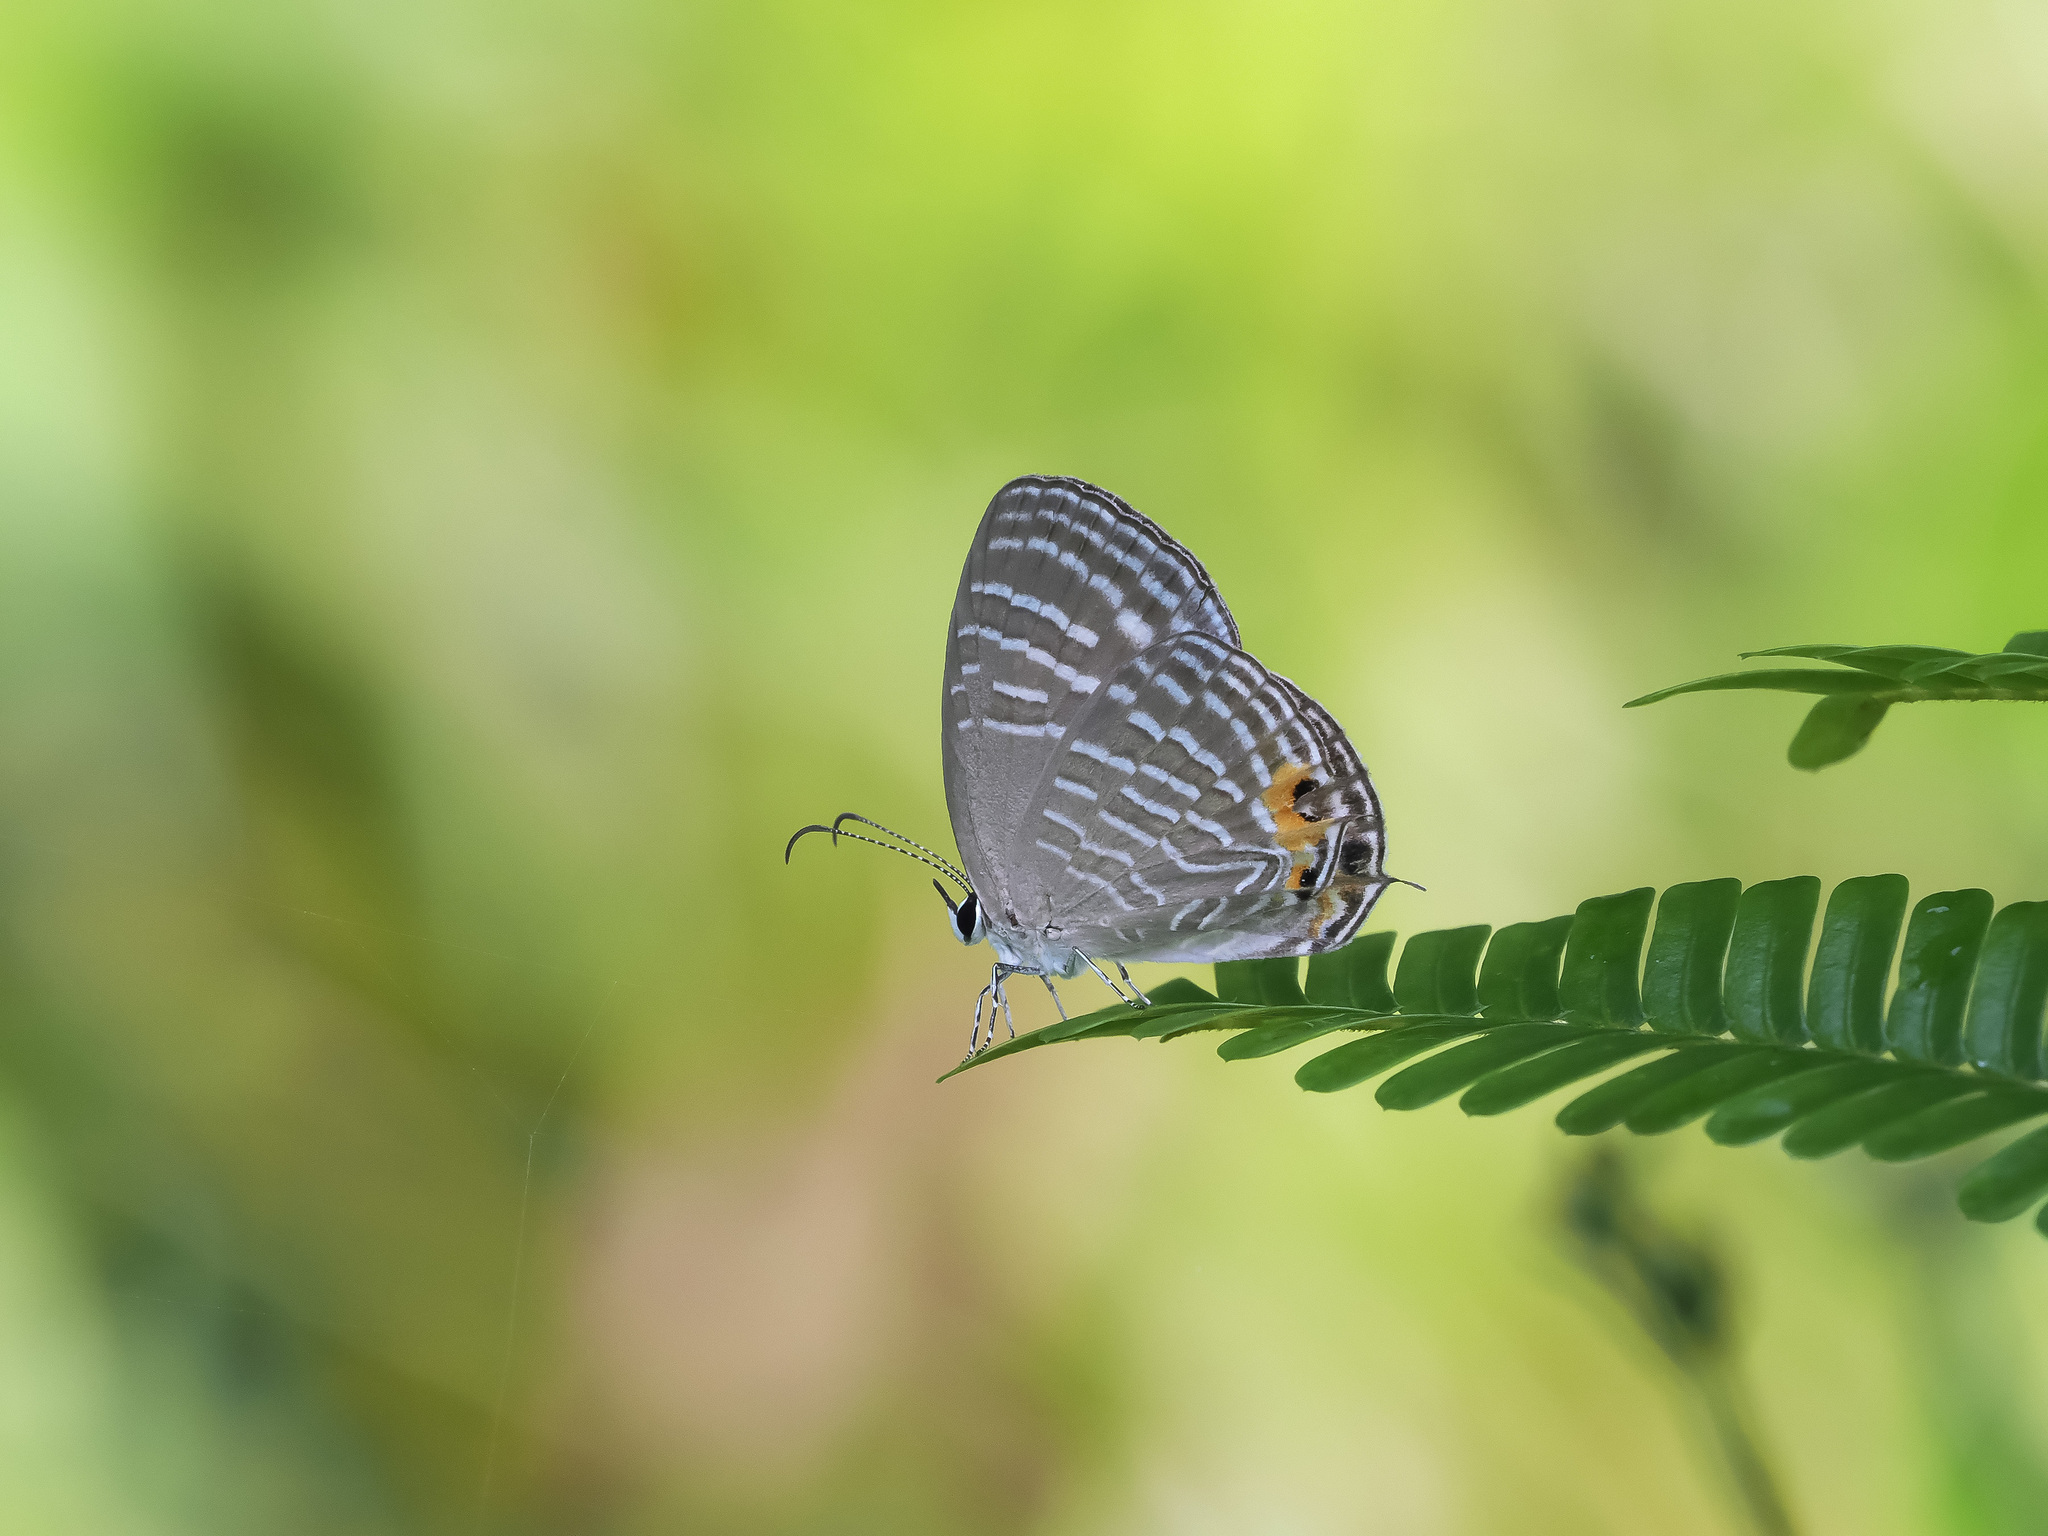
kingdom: Animalia
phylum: Arthropoda
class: Insecta
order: Lepidoptera
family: Lycaenidae
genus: Jamides
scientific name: Jamides celeno
